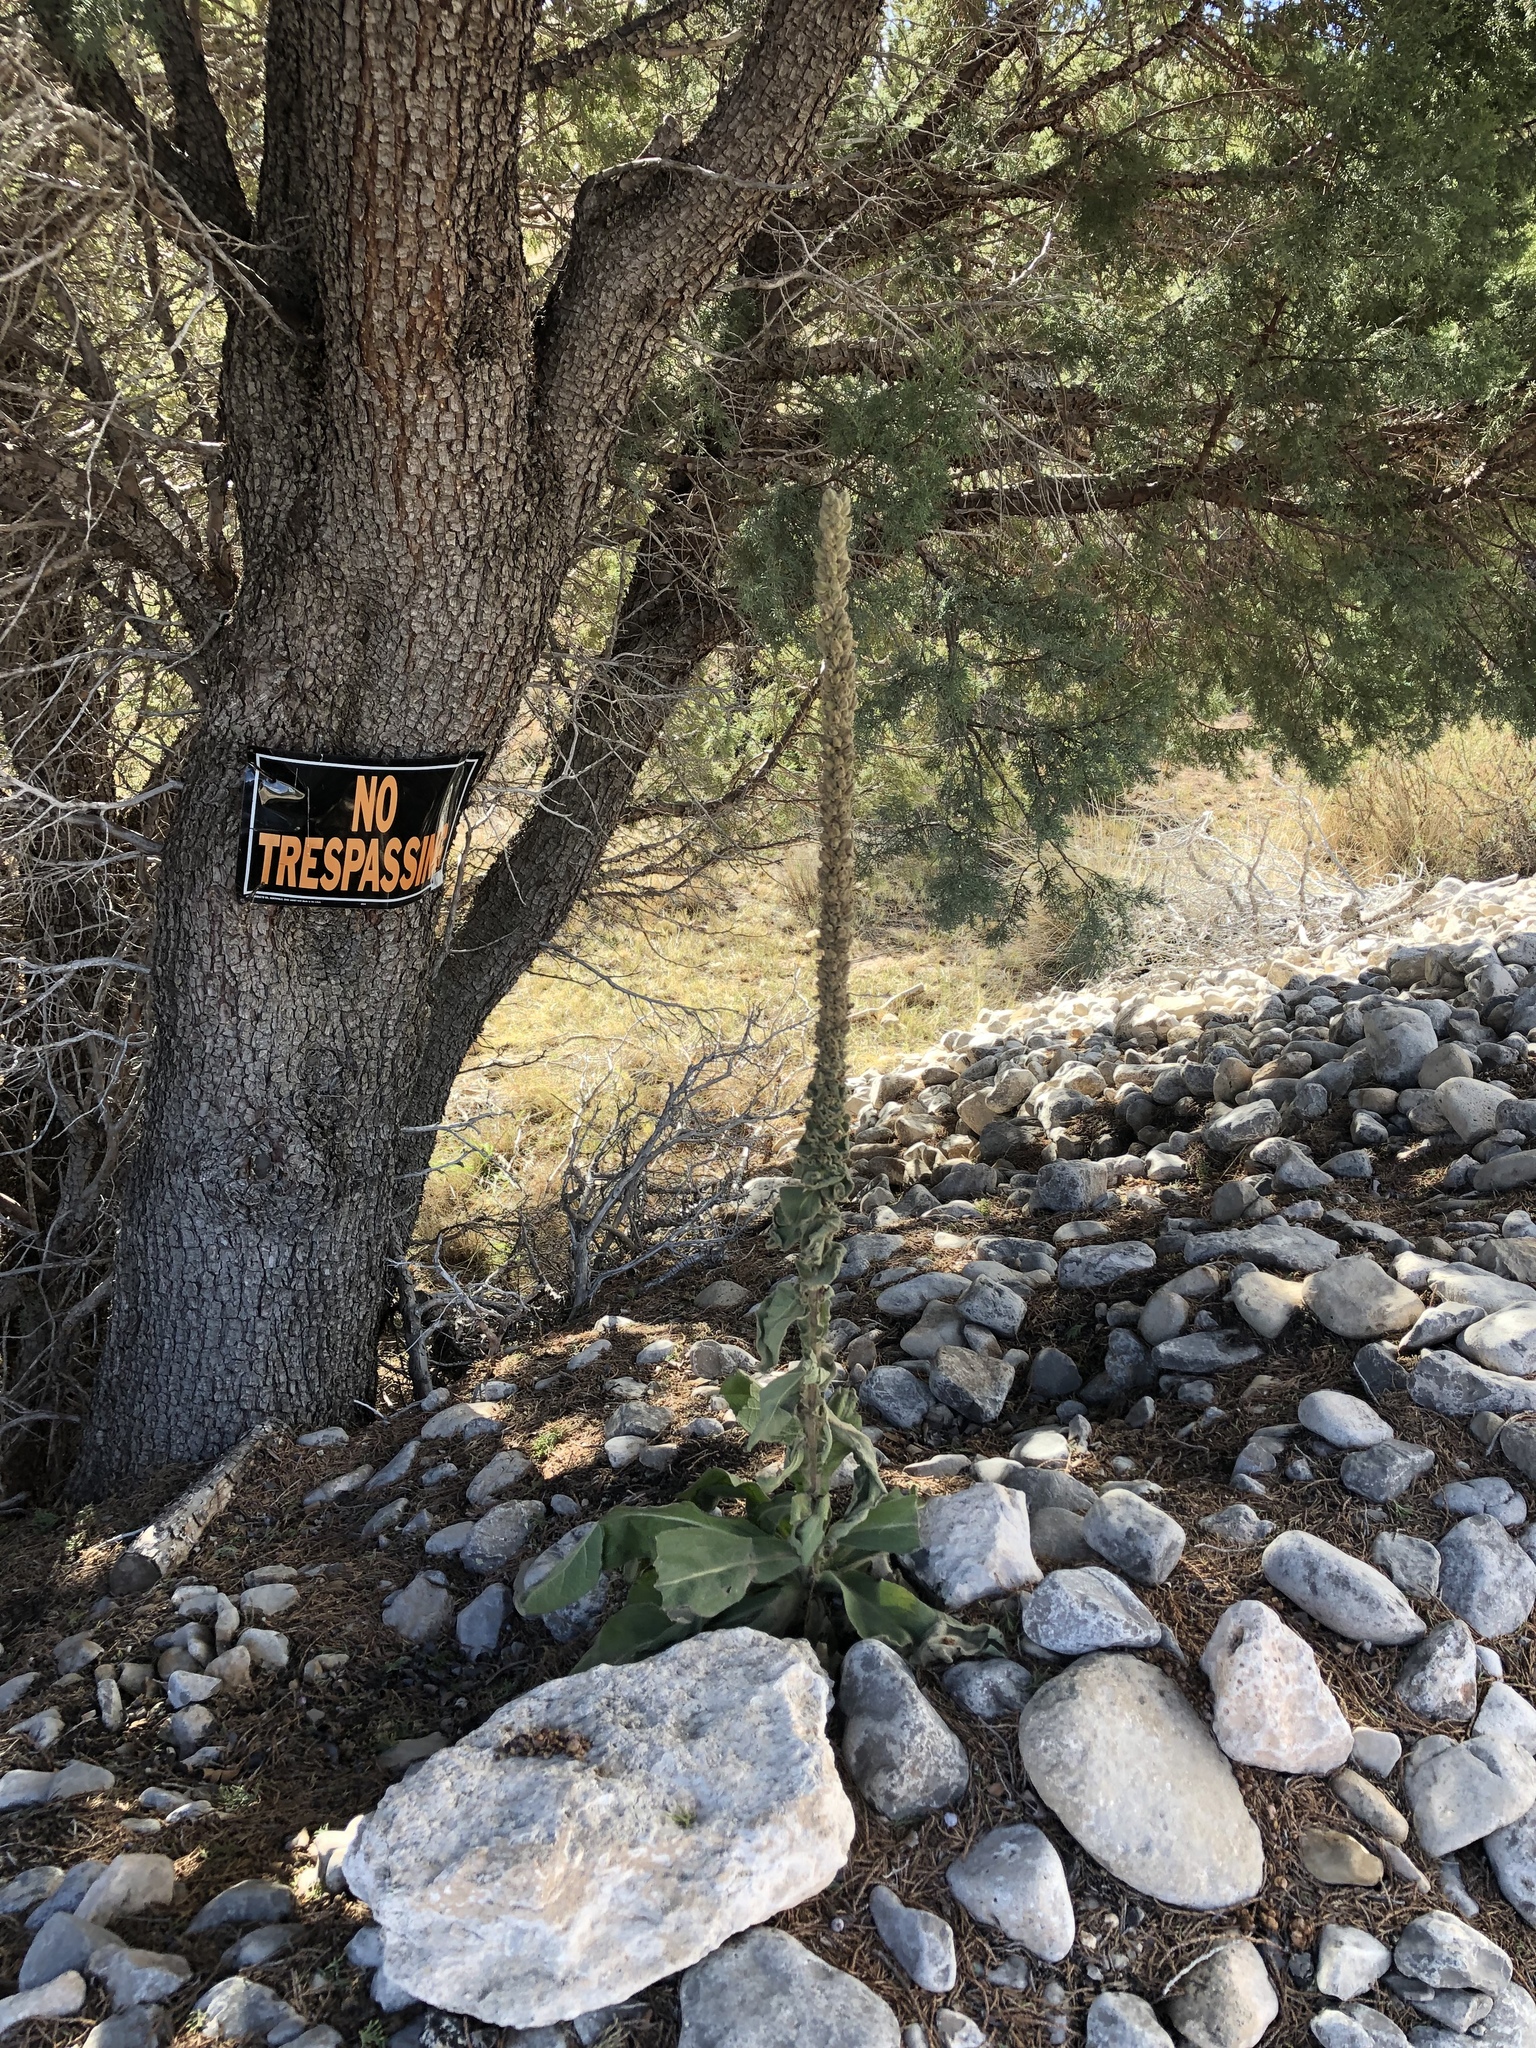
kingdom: Plantae
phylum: Tracheophyta
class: Pinopsida
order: Pinales
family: Cupressaceae
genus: Juniperus
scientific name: Juniperus deppeana
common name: Alligator juniper
